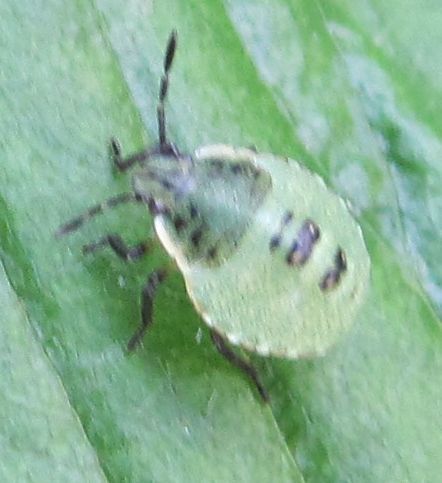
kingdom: Animalia
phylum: Arthropoda
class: Insecta
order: Hemiptera
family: Pentatomidae
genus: Palomena
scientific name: Palomena prasina
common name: Green shieldbug
